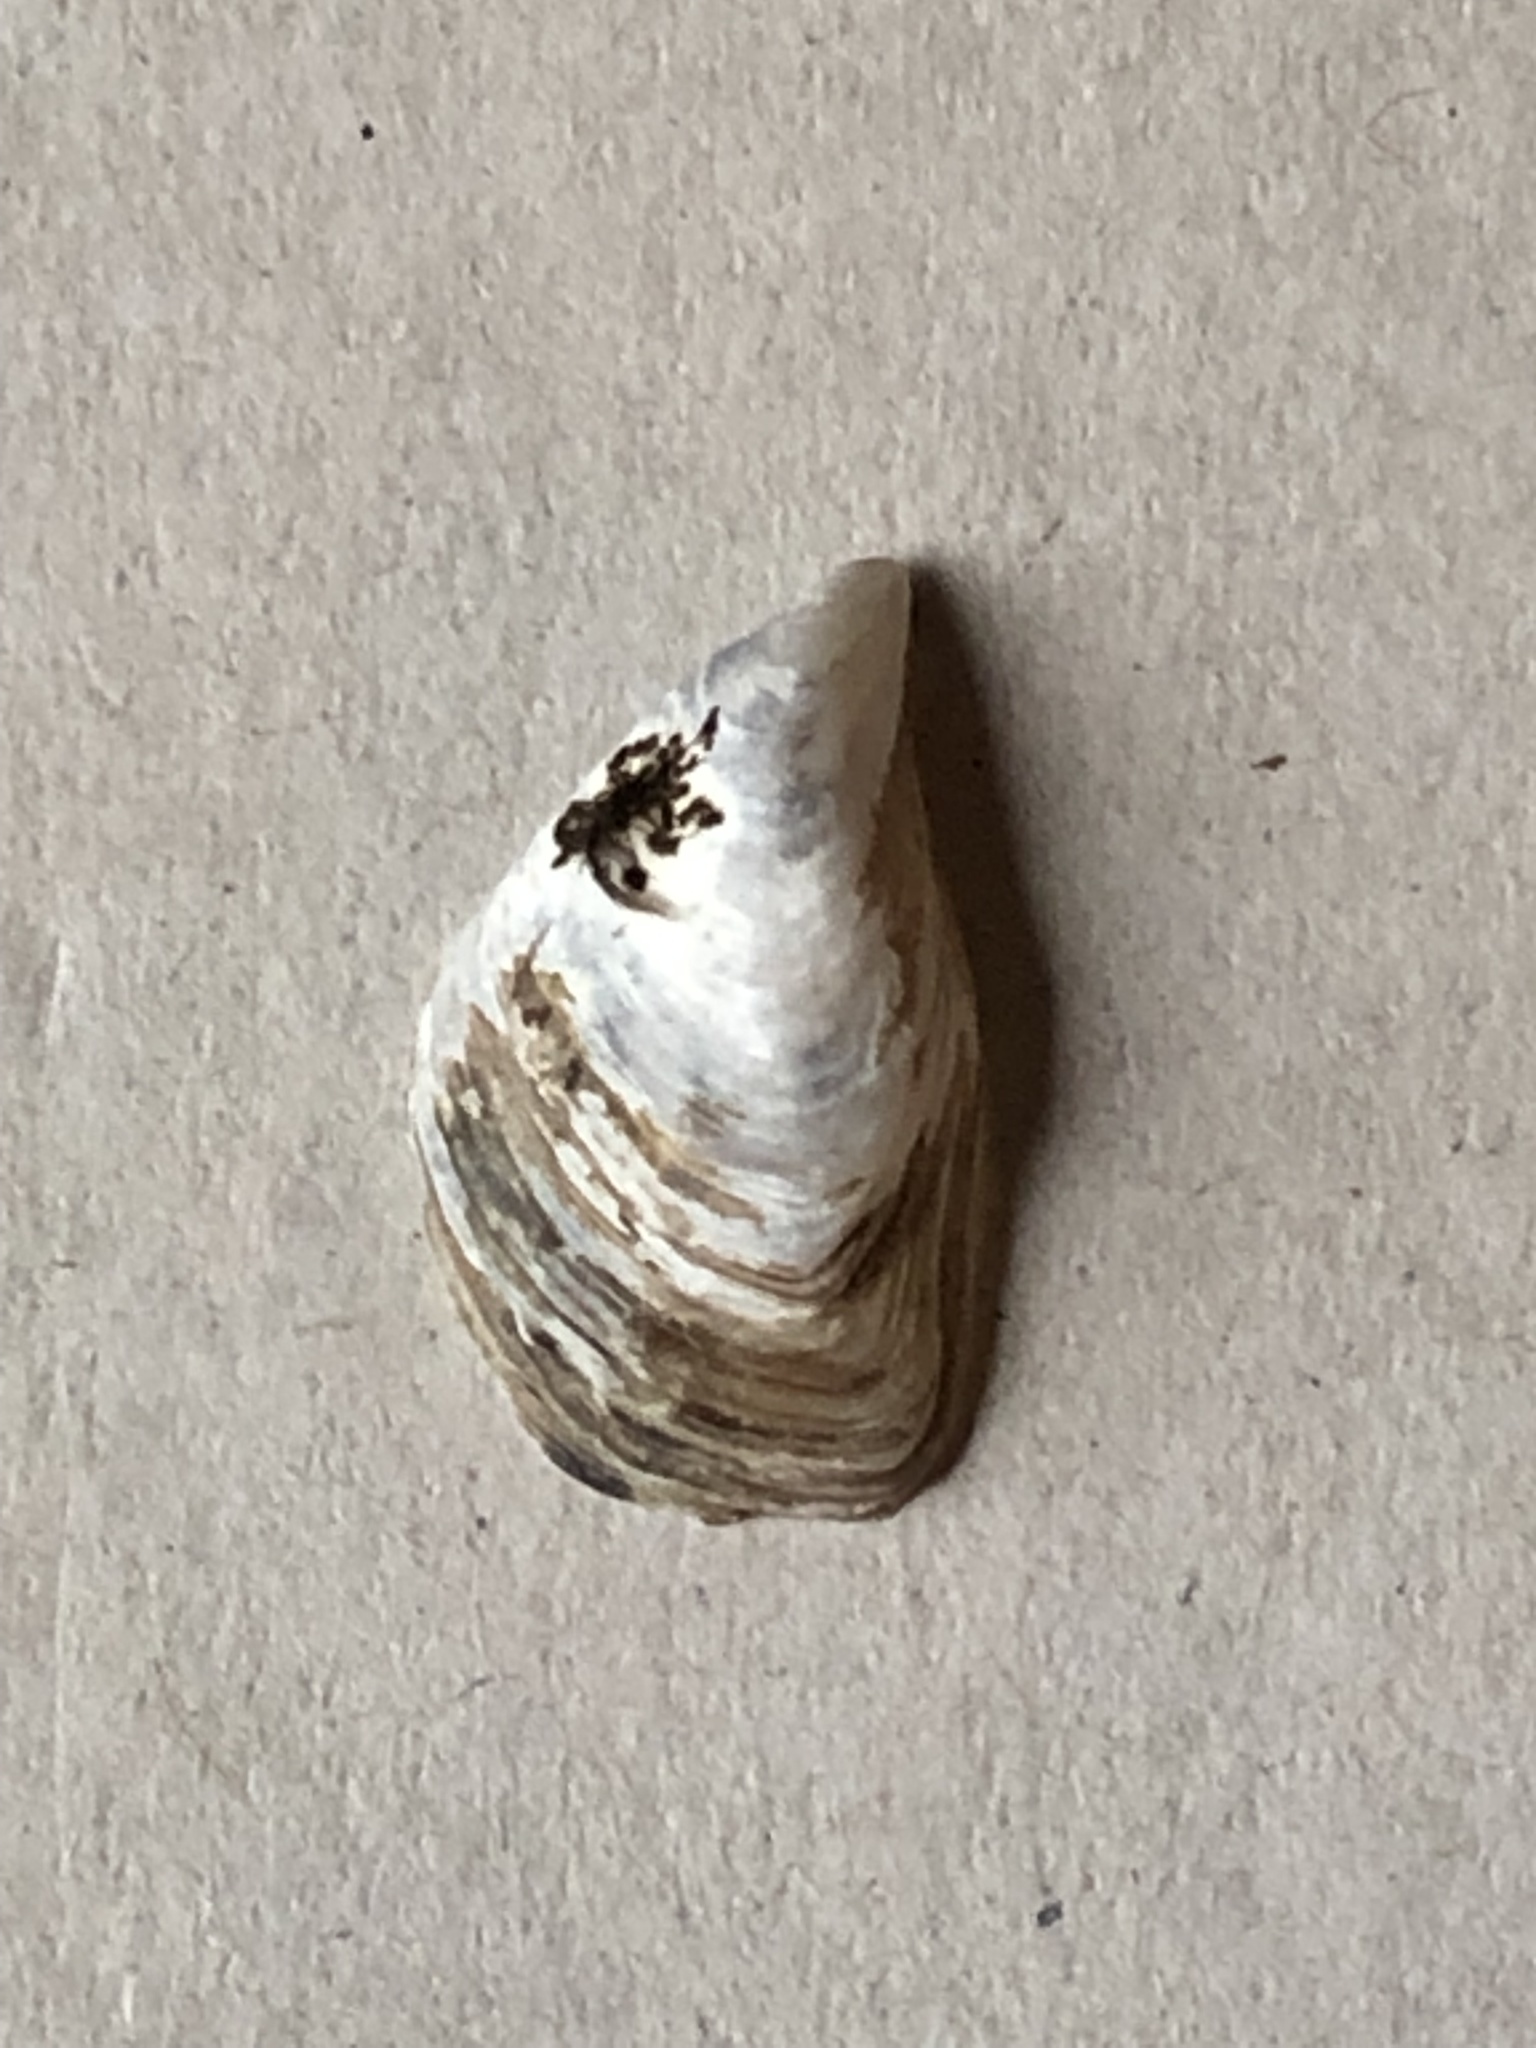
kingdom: Animalia
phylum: Mollusca
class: Bivalvia
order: Myida
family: Dreissenidae
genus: Dreissena
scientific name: Dreissena bugensis
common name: Quagga mussel
